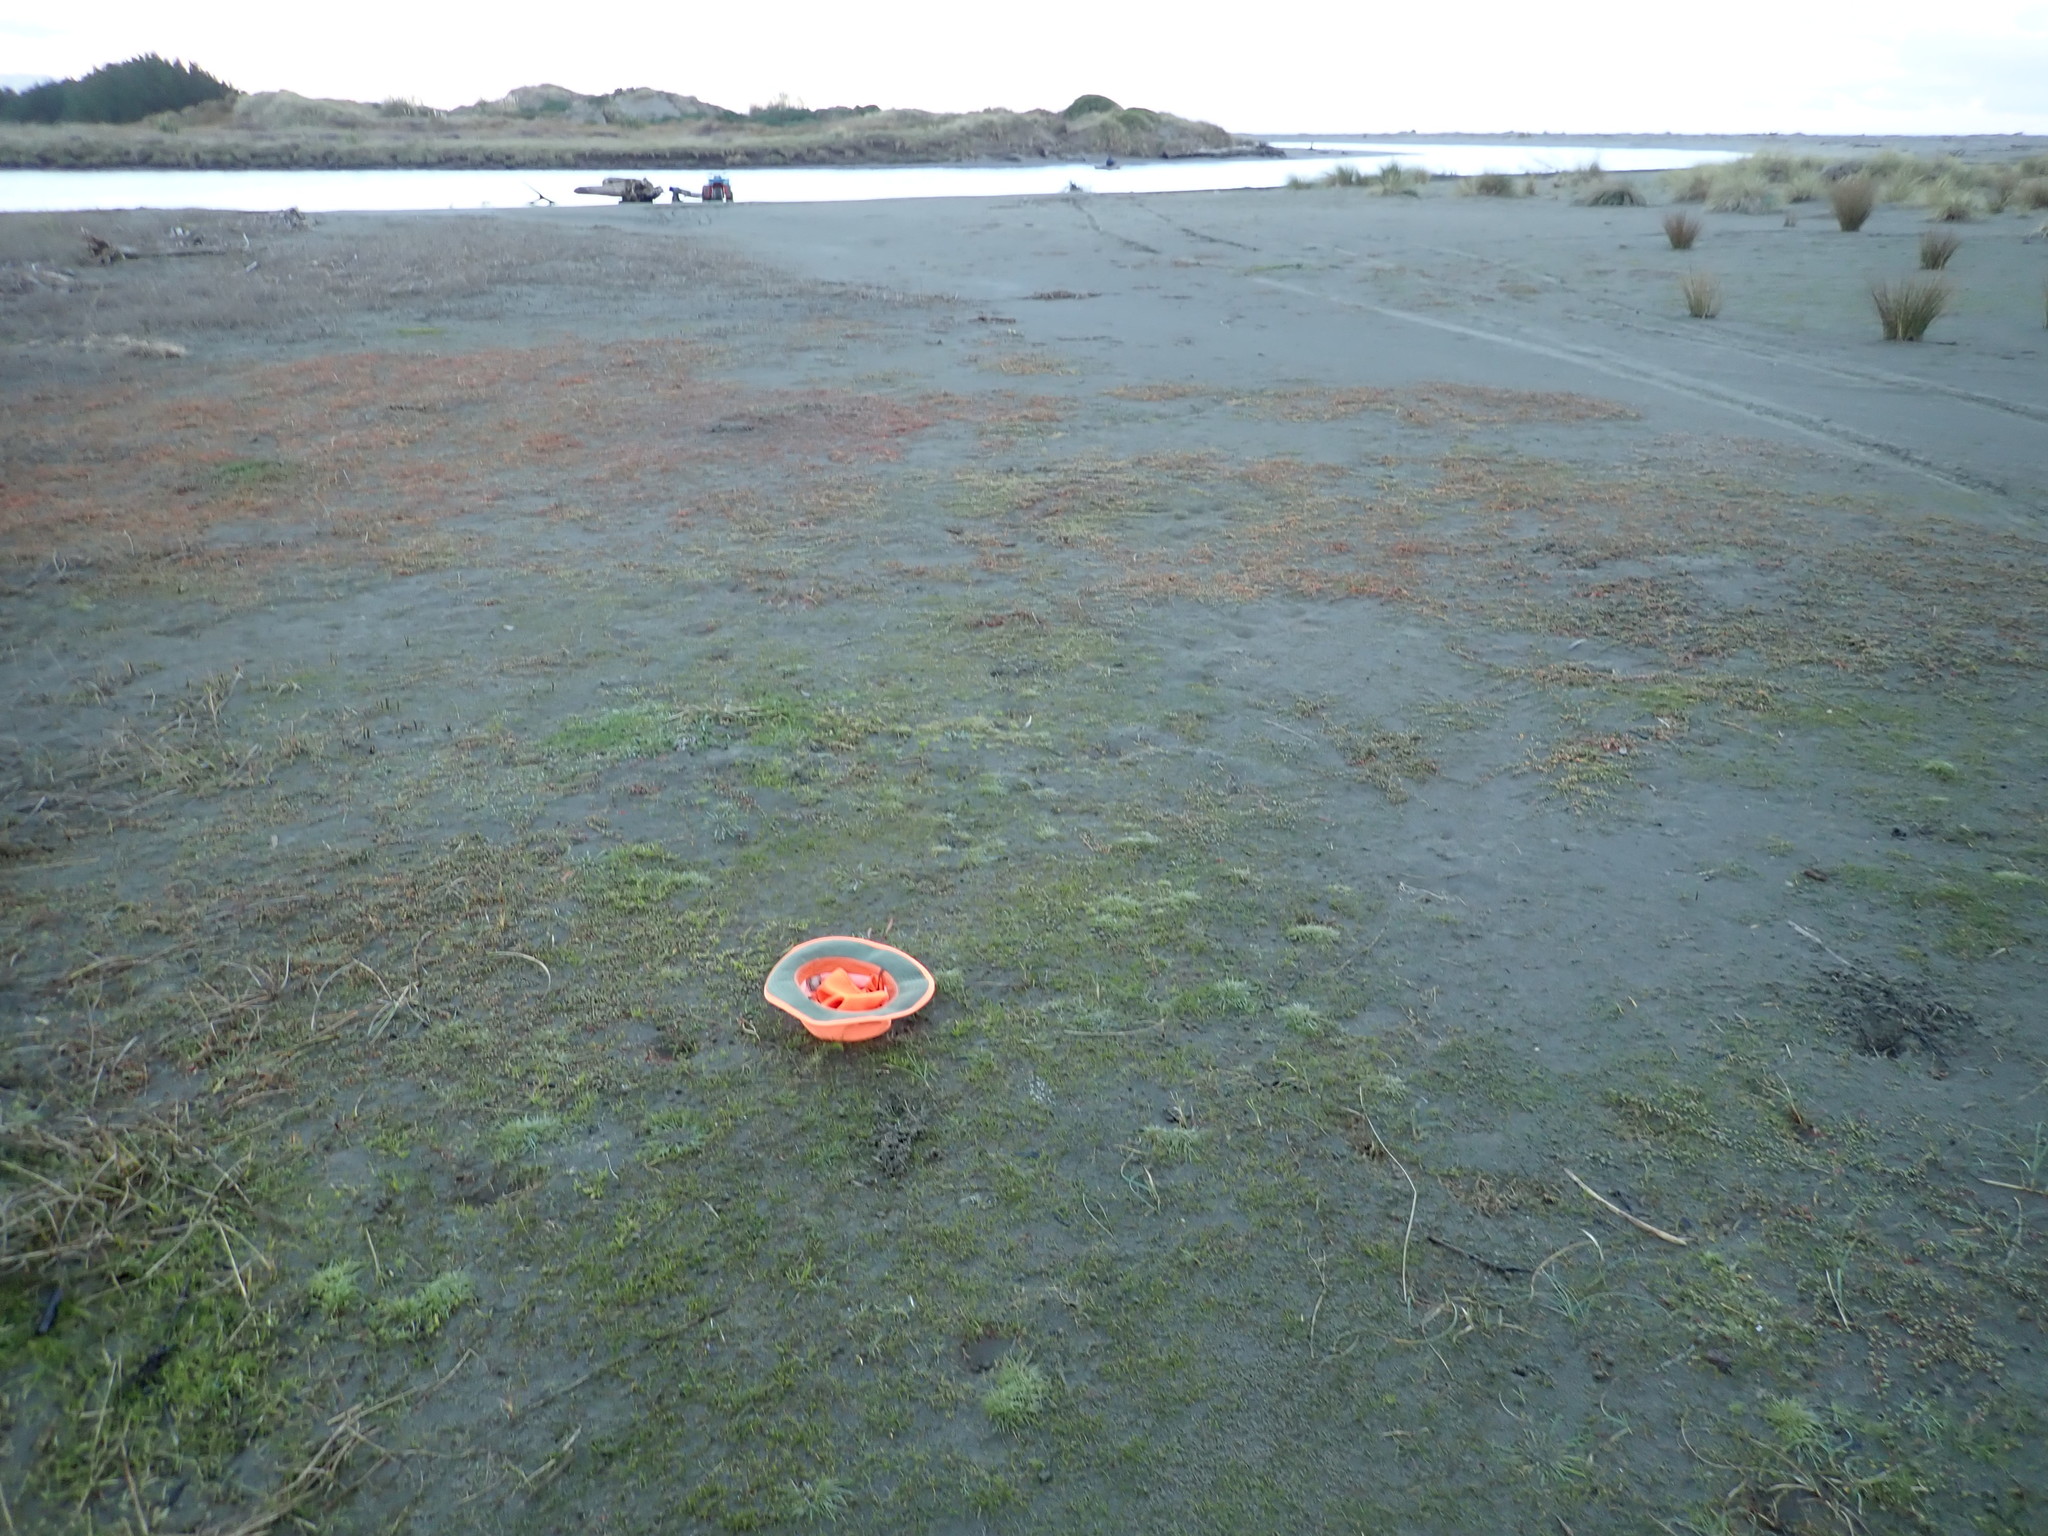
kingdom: Plantae
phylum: Tracheophyta
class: Magnoliopsida
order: Asterales
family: Asteraceae
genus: Cotula
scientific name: Cotula coronopifolia
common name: Buttonweed
